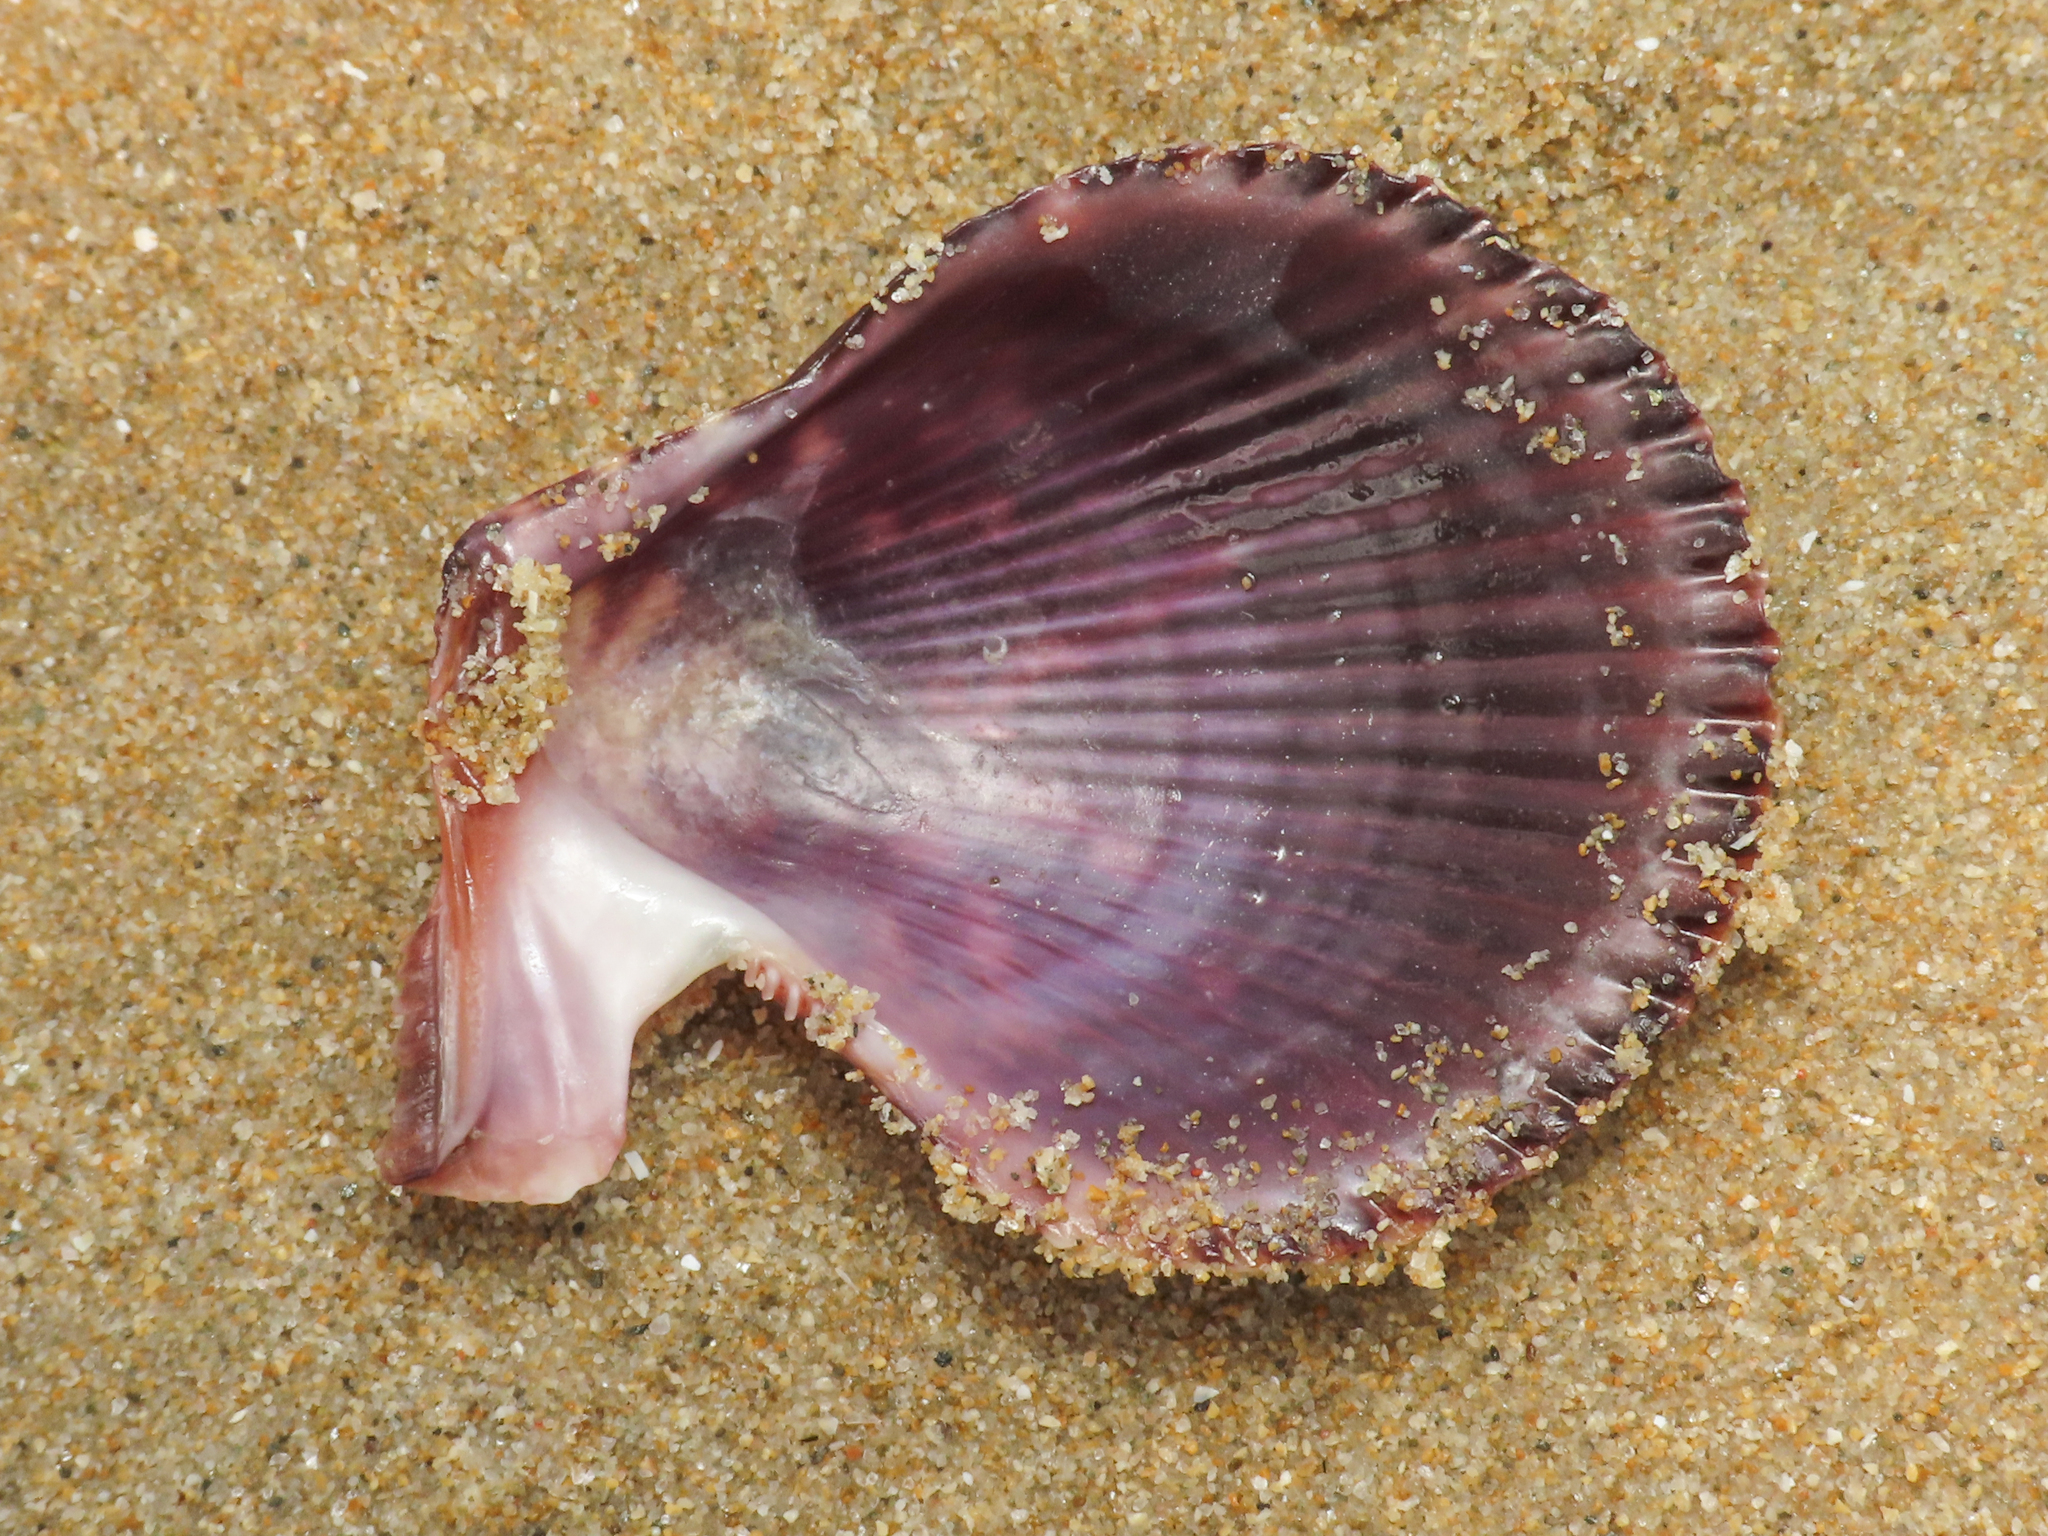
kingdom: Animalia
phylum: Mollusca
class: Bivalvia
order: Pectinida
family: Pectinidae
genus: Mimachlamys
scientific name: Mimachlamys varia
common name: Variegated scallop
